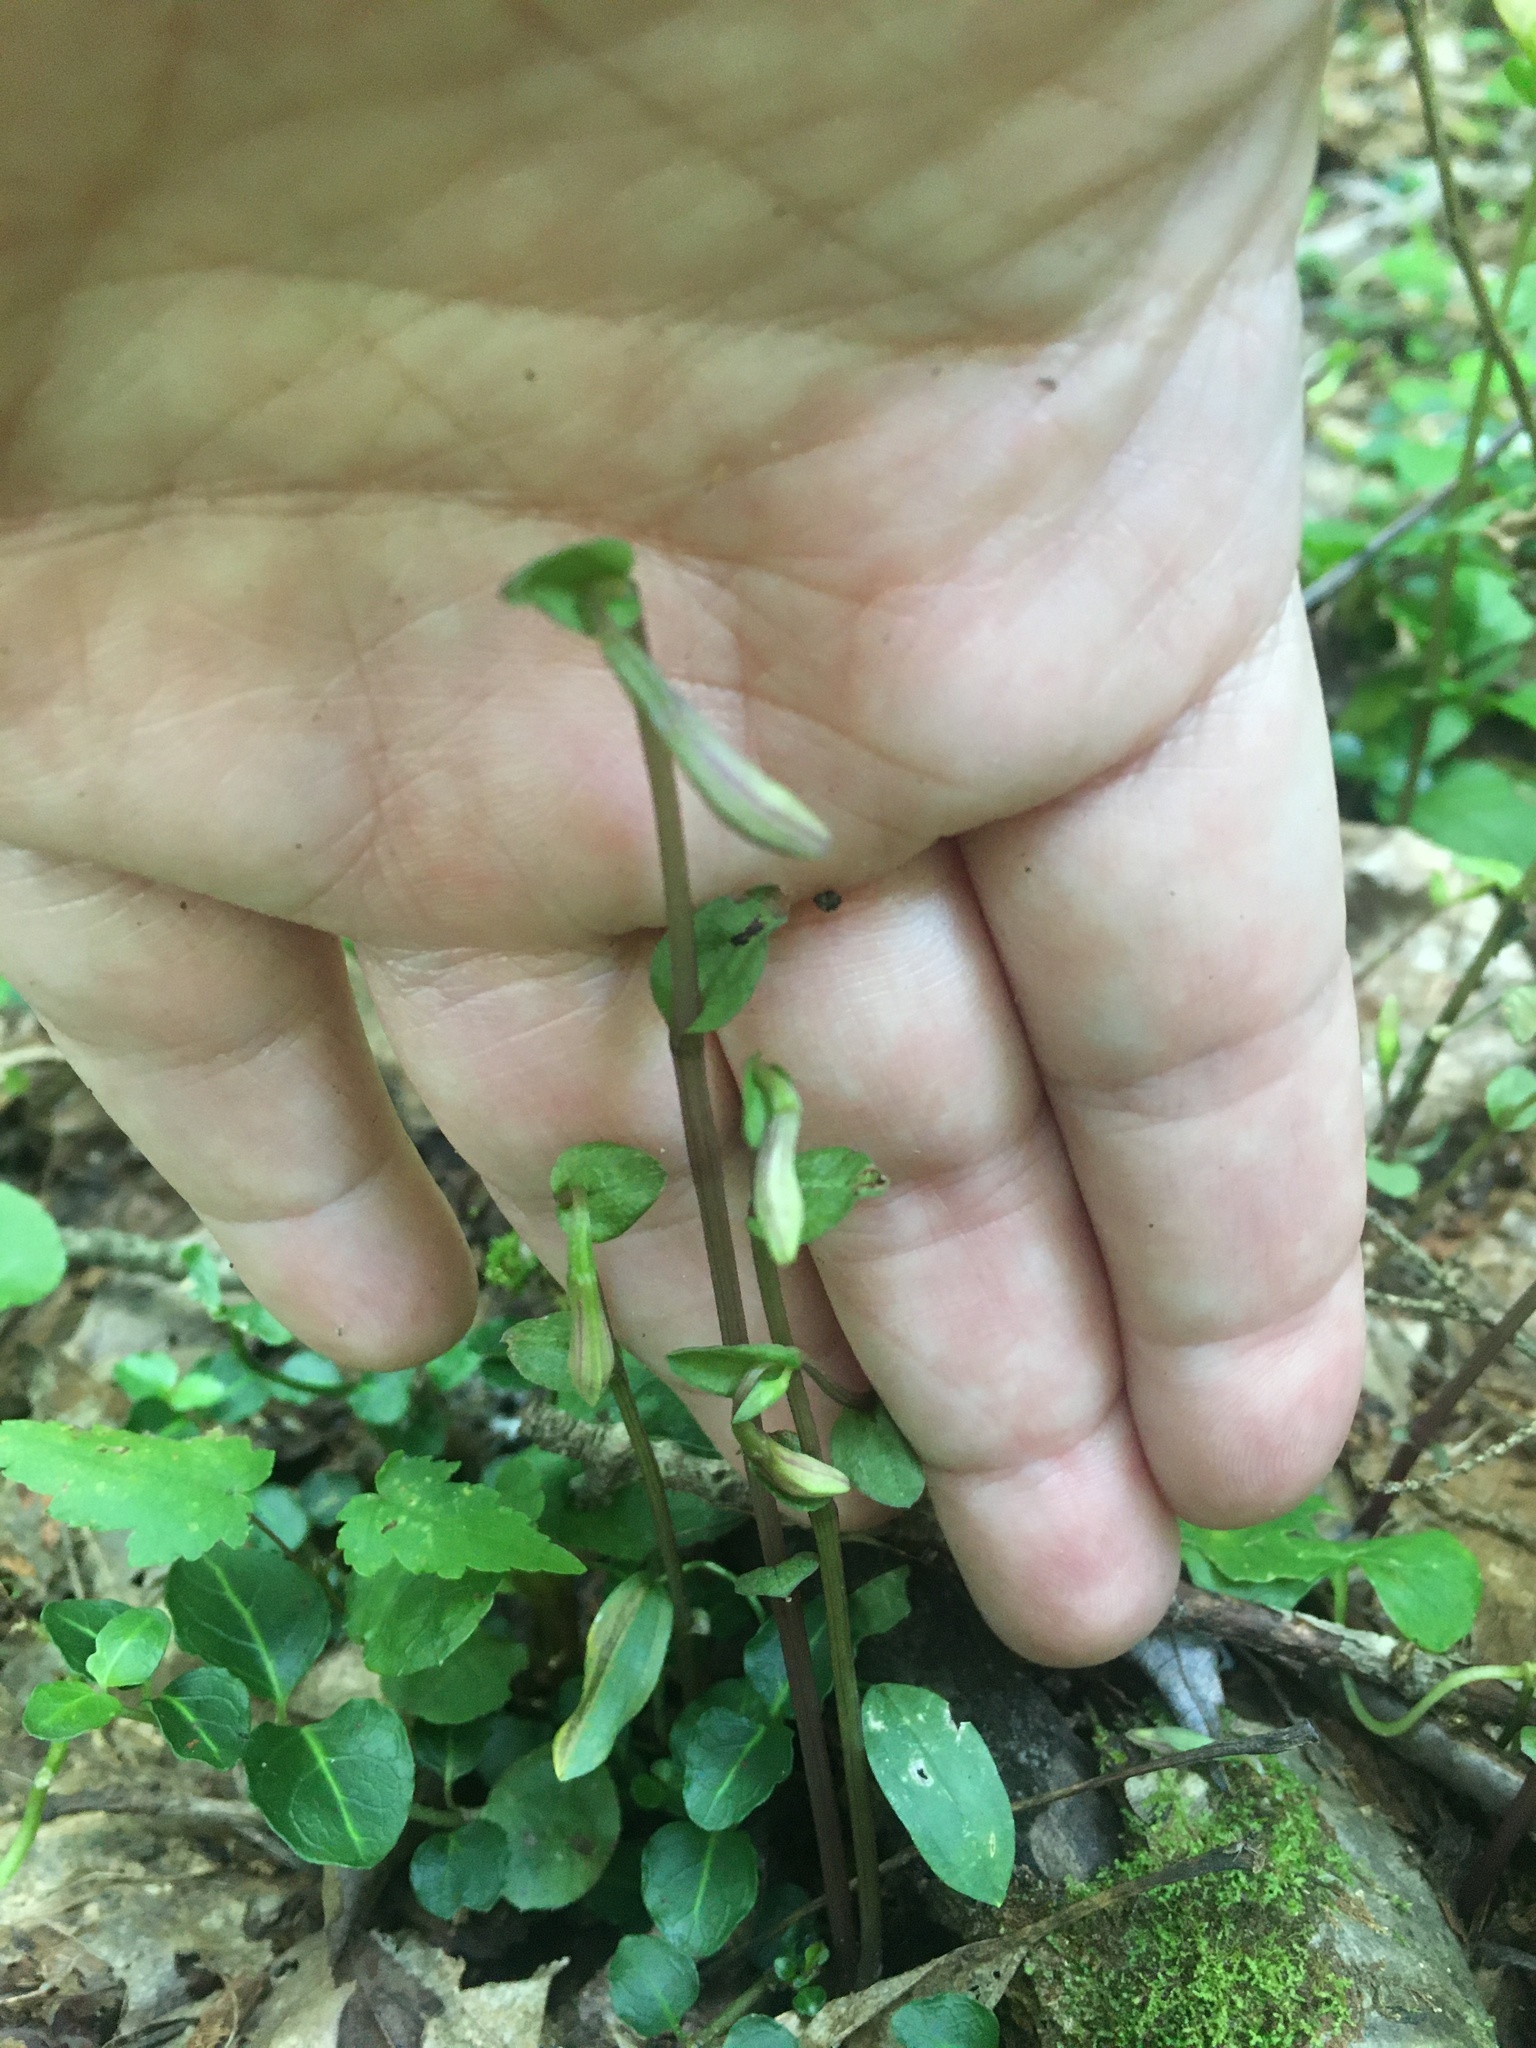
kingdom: Plantae
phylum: Tracheophyta
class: Liliopsida
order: Asparagales
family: Orchidaceae
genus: Triphora
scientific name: Triphora trianthophoros
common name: Three birds orchid
